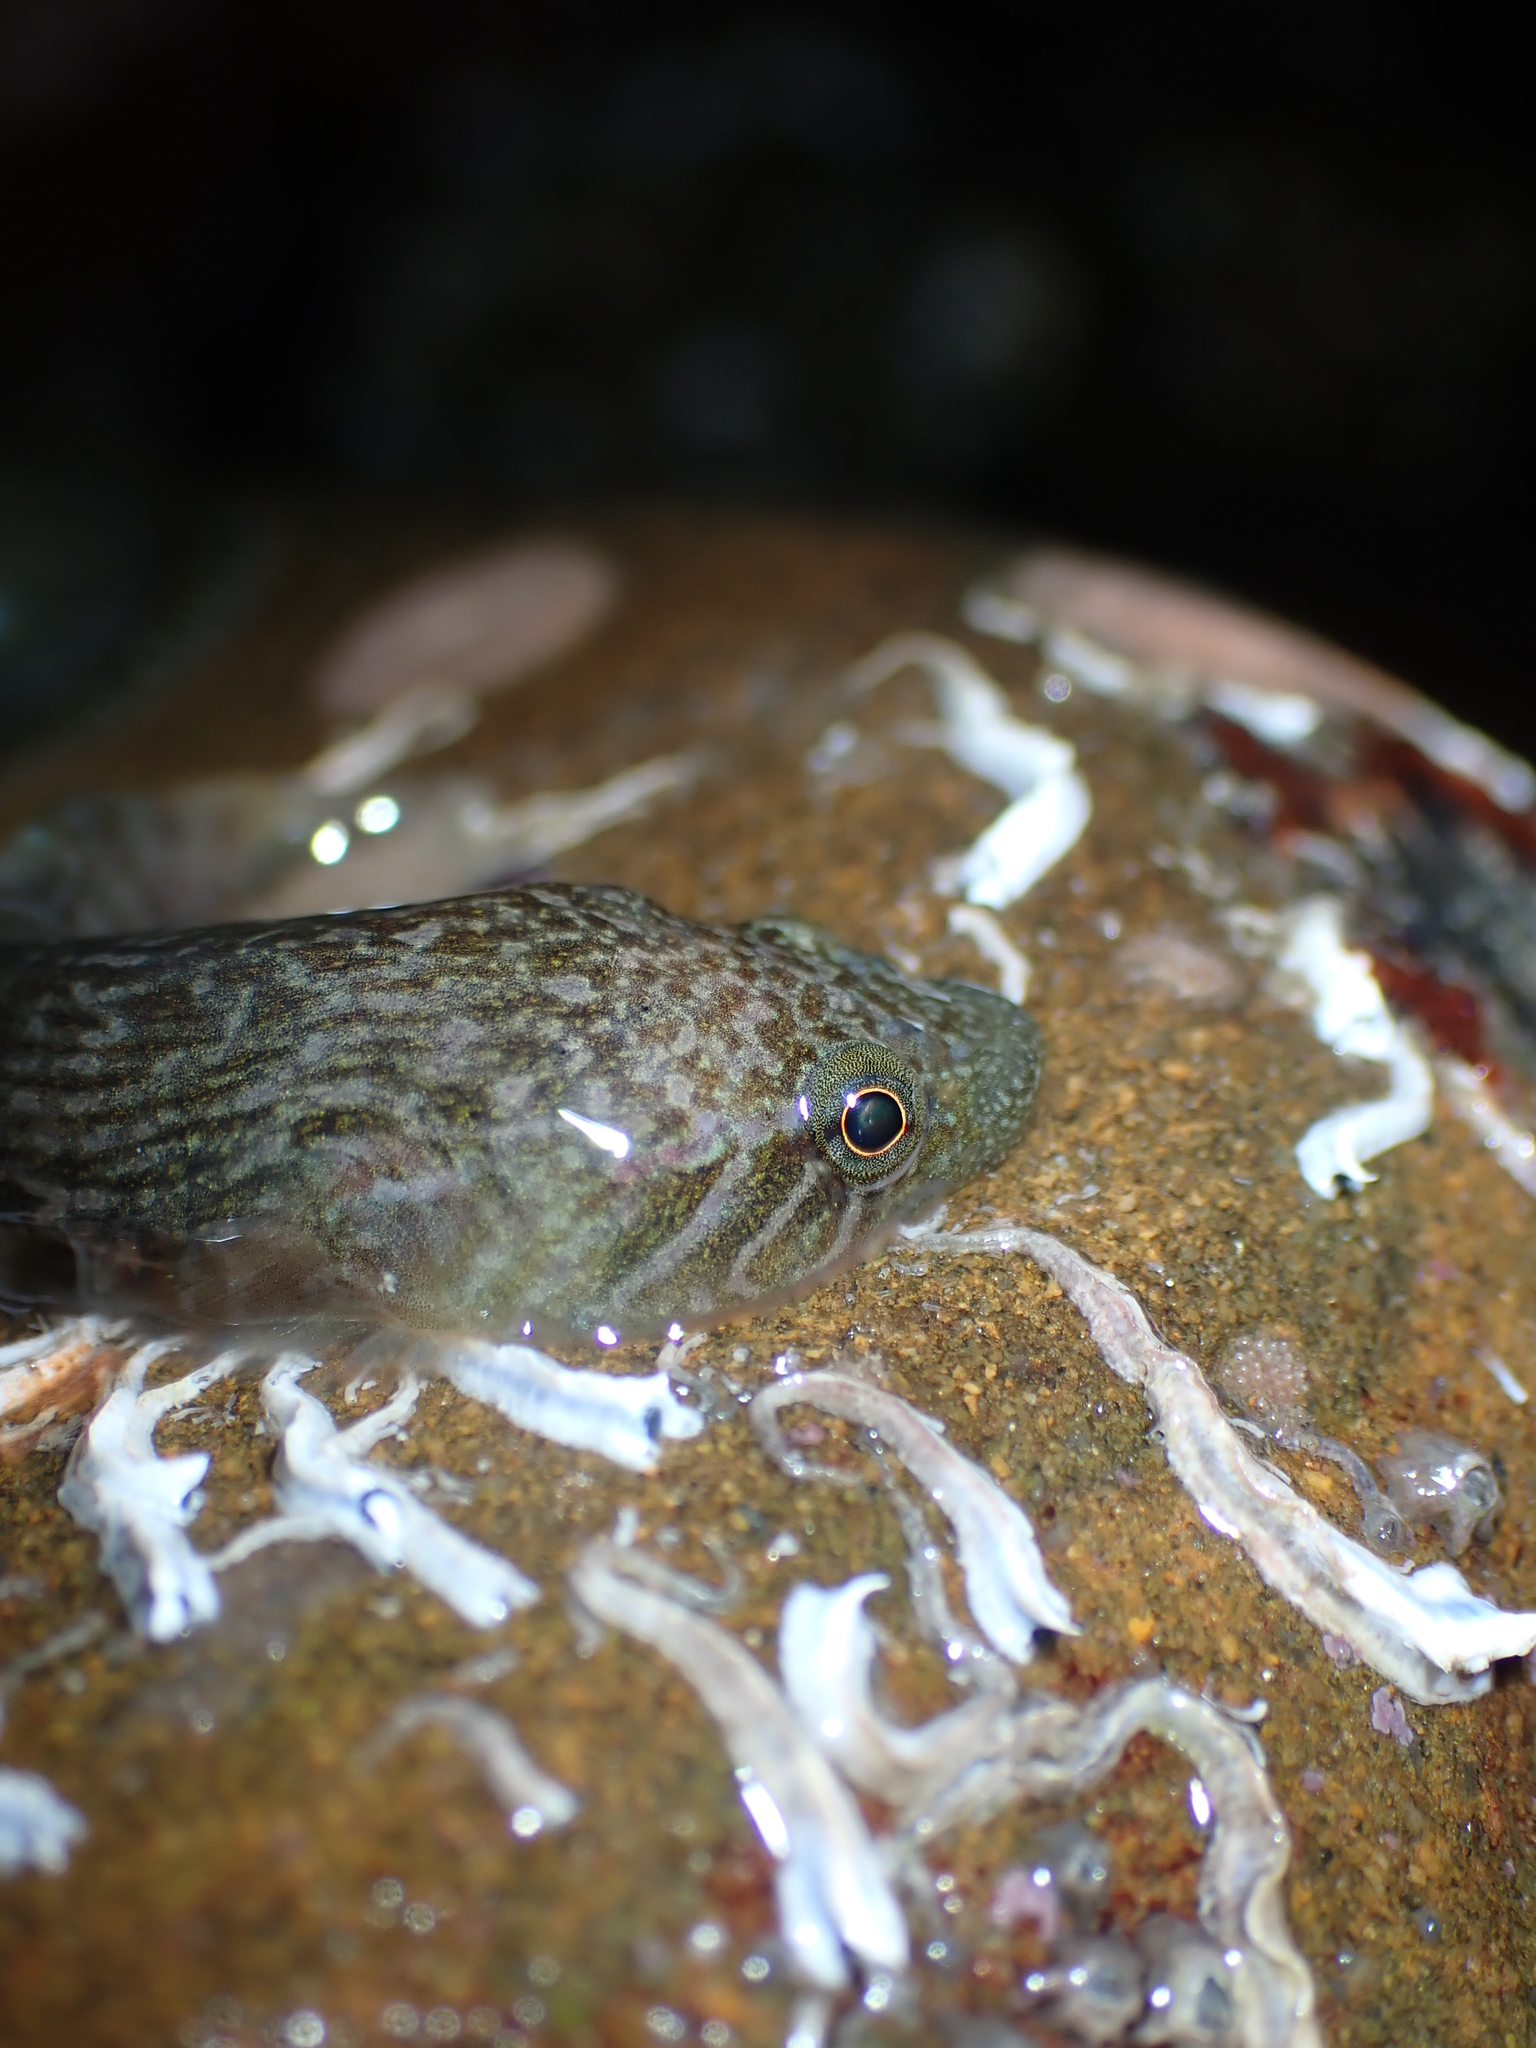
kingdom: Animalia
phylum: Chordata
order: Gobiesociformes
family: Gobiesocidae
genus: Trachelochismus
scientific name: Trachelochismus pinnulatus
